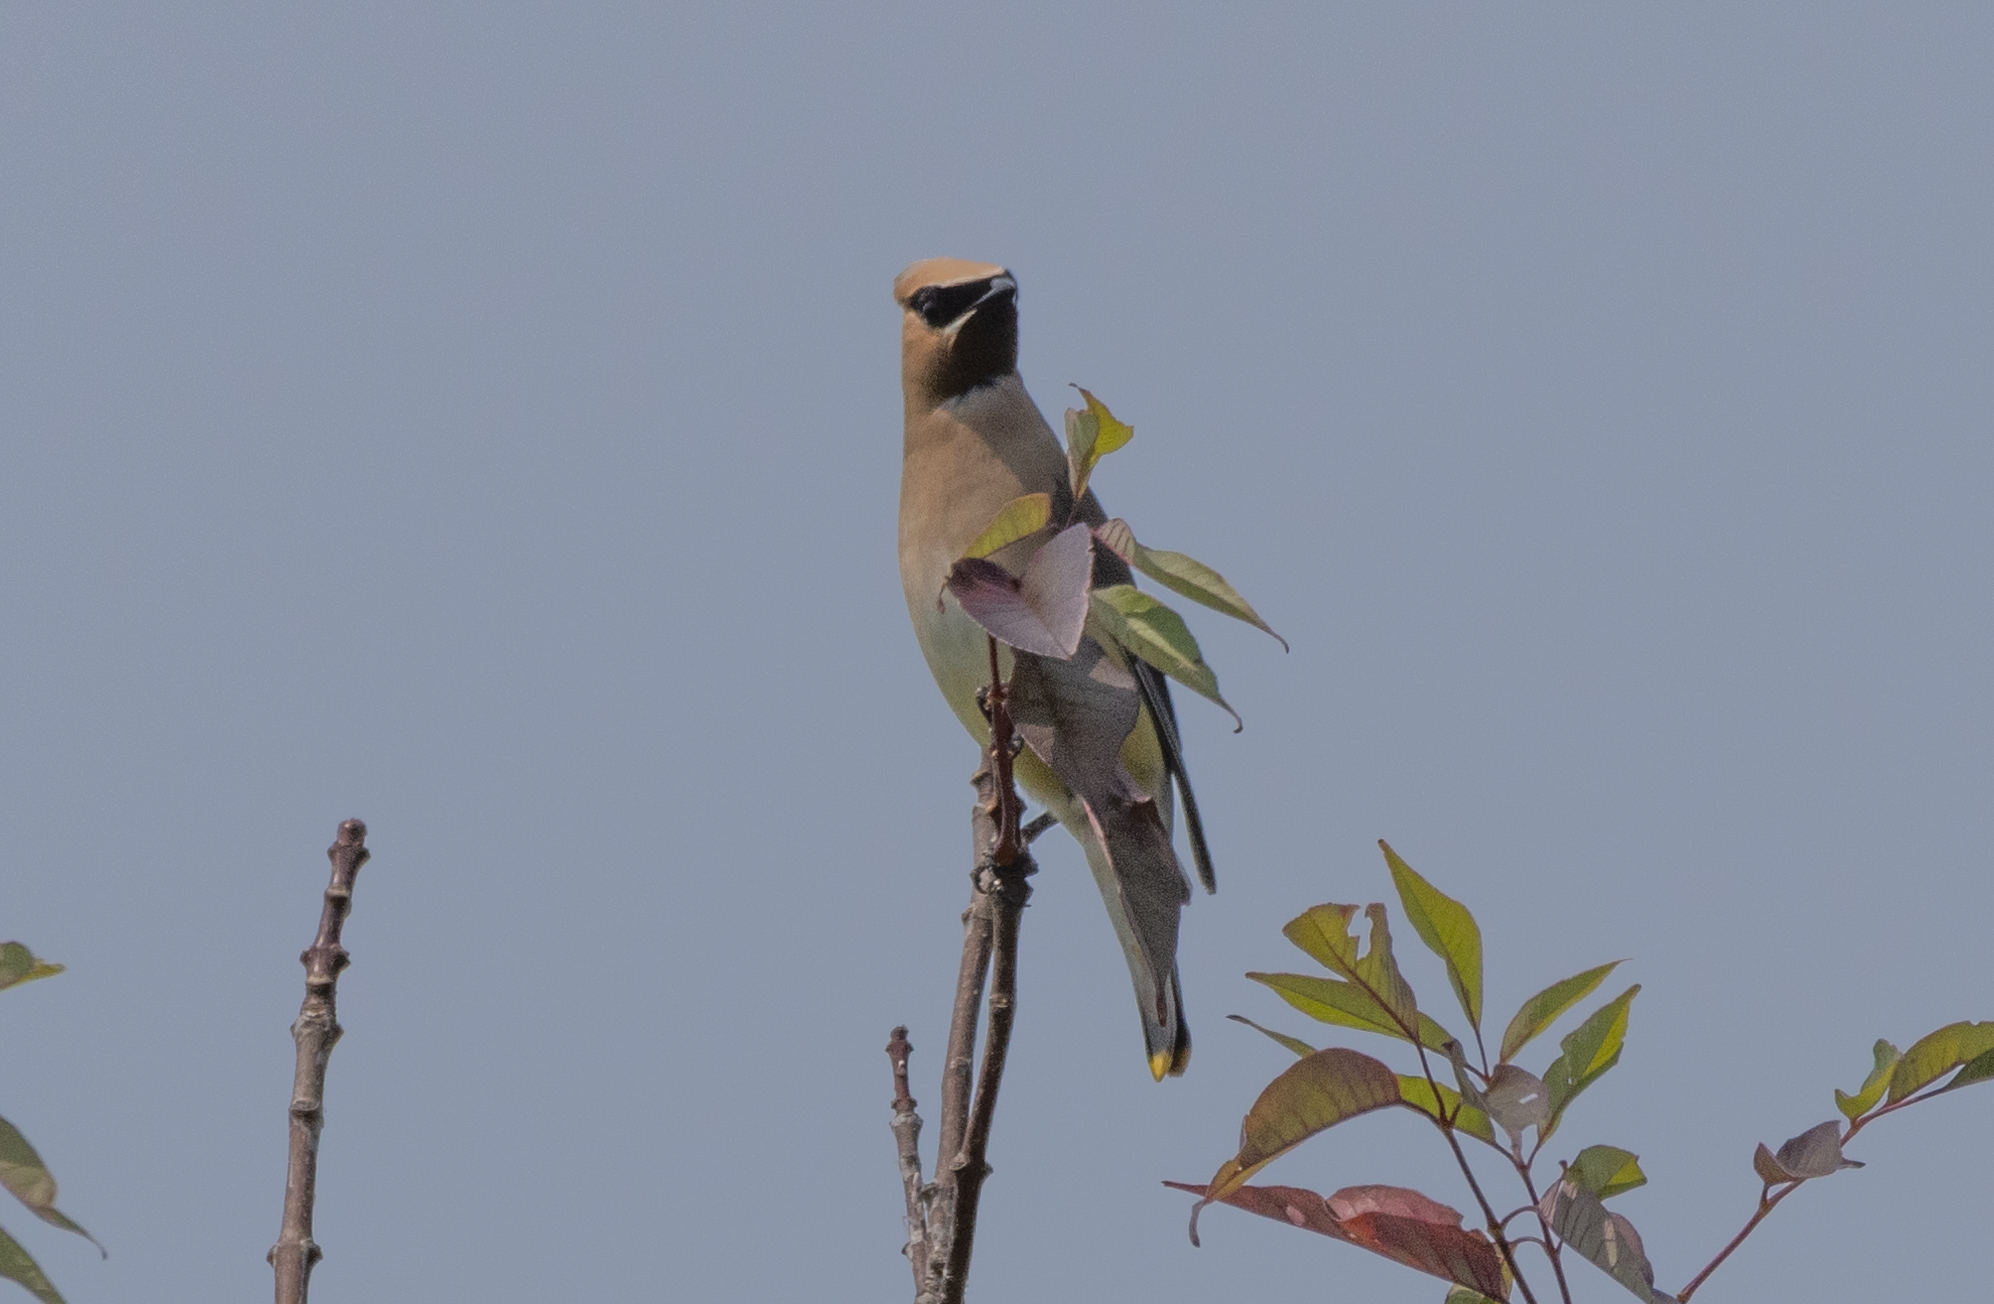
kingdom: Animalia
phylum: Chordata
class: Aves
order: Passeriformes
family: Bombycillidae
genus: Bombycilla
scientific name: Bombycilla cedrorum
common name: Cedar waxwing
